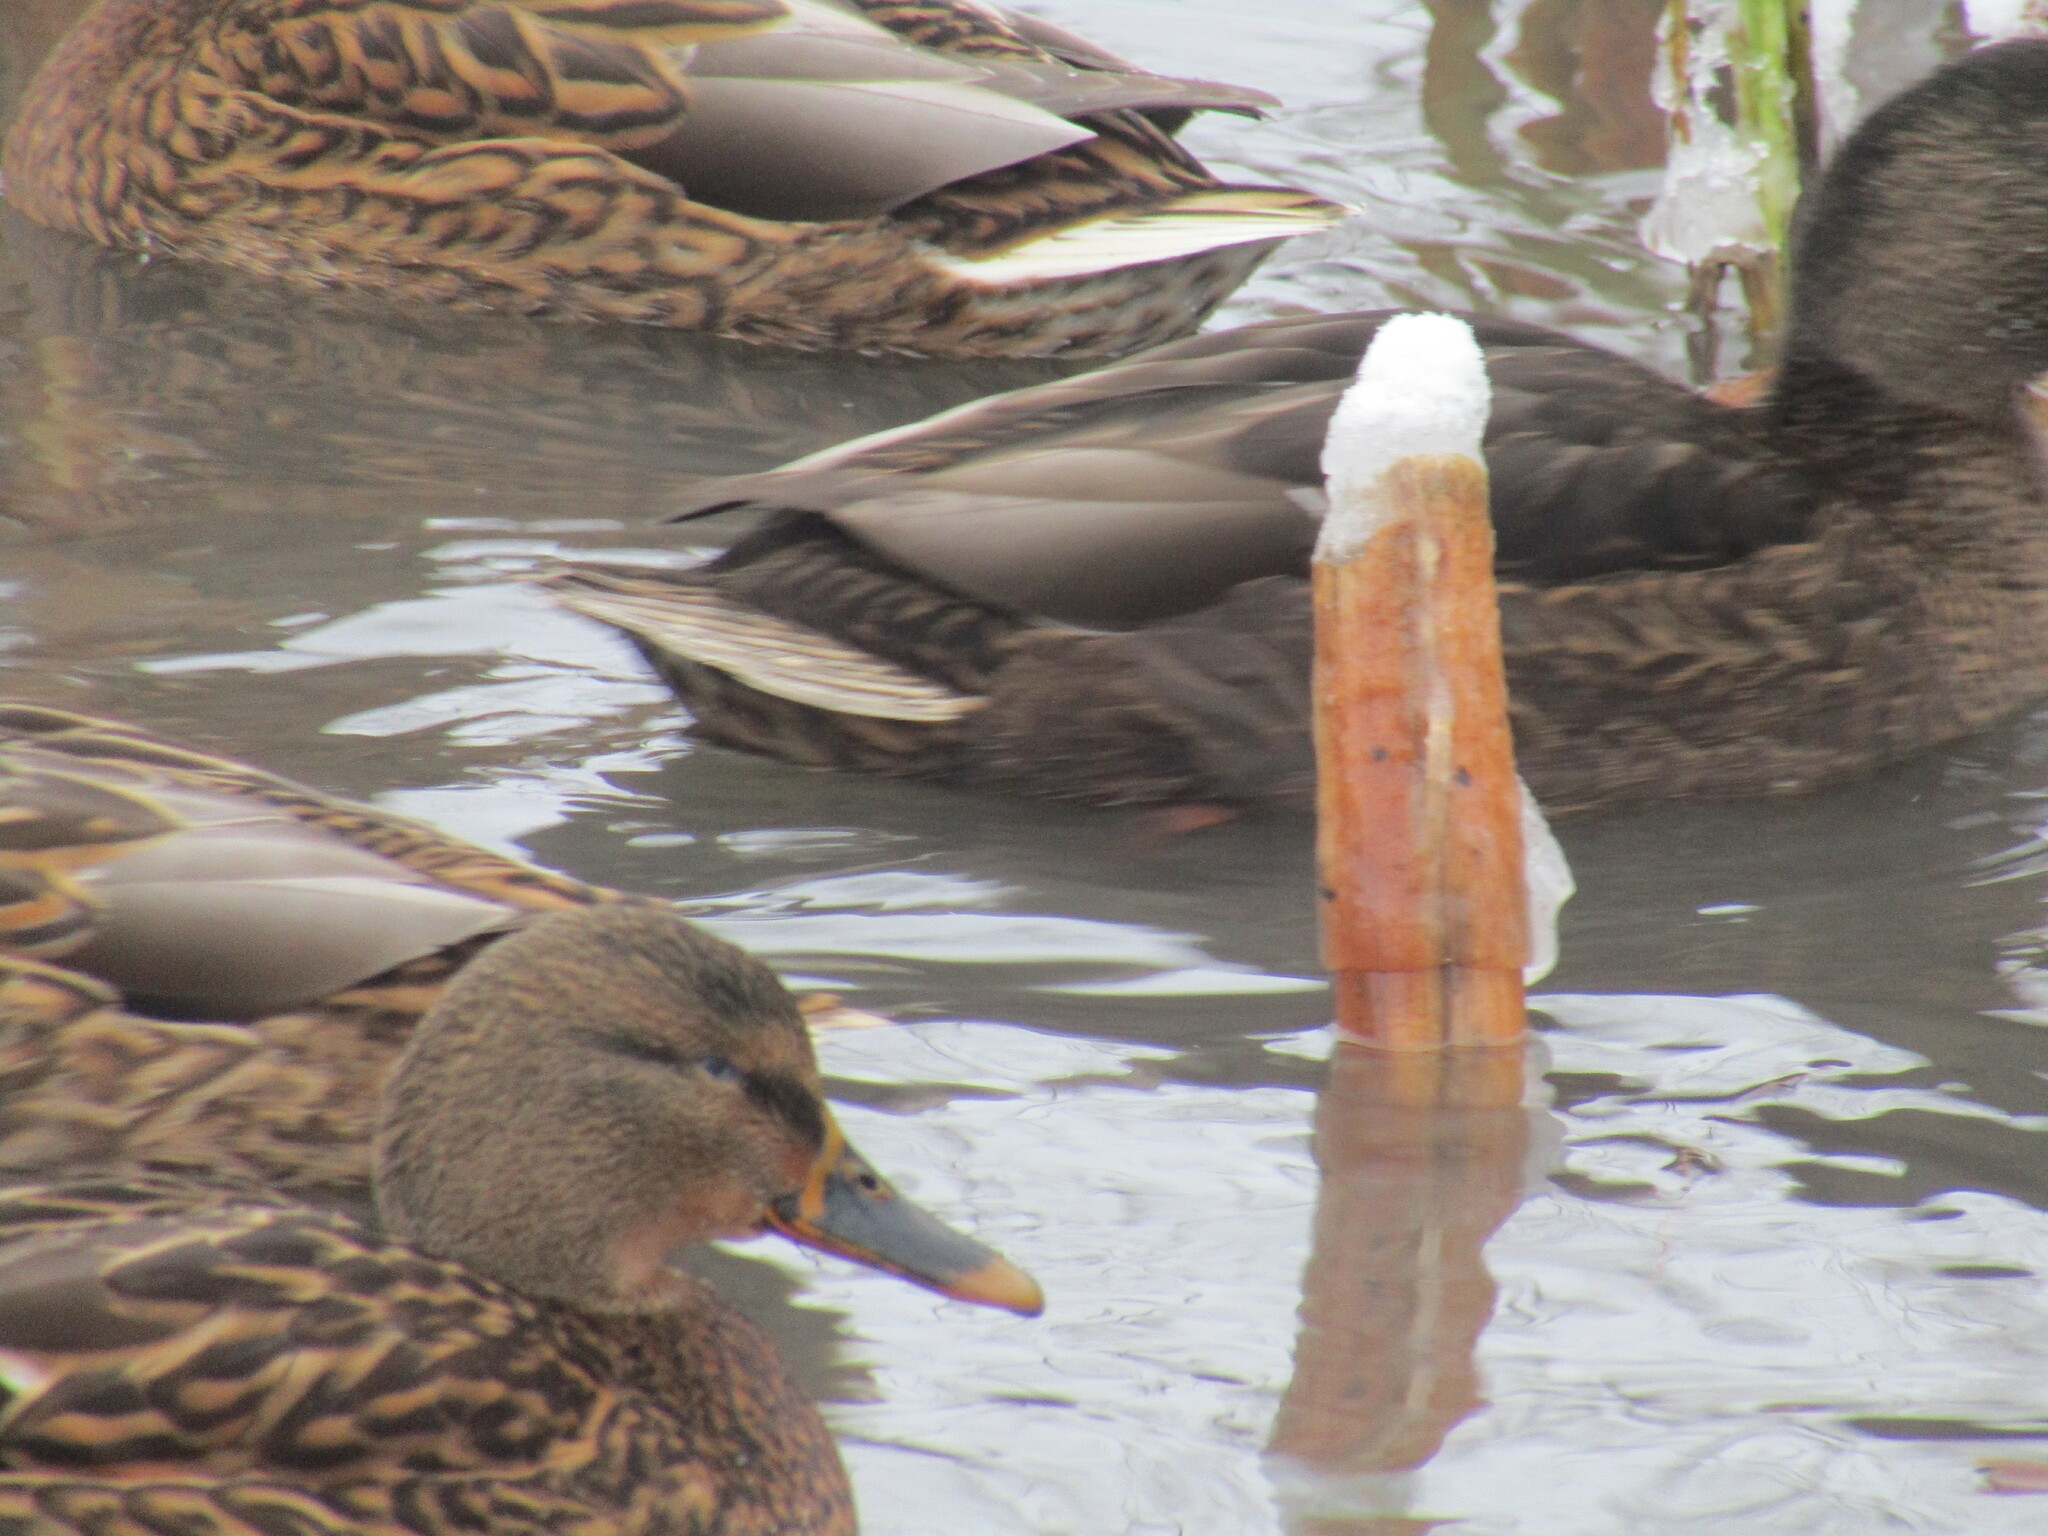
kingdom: Animalia
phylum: Chordata
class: Aves
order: Anseriformes
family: Anatidae
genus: Anas
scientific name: Anas platyrhynchos
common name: Mallard
